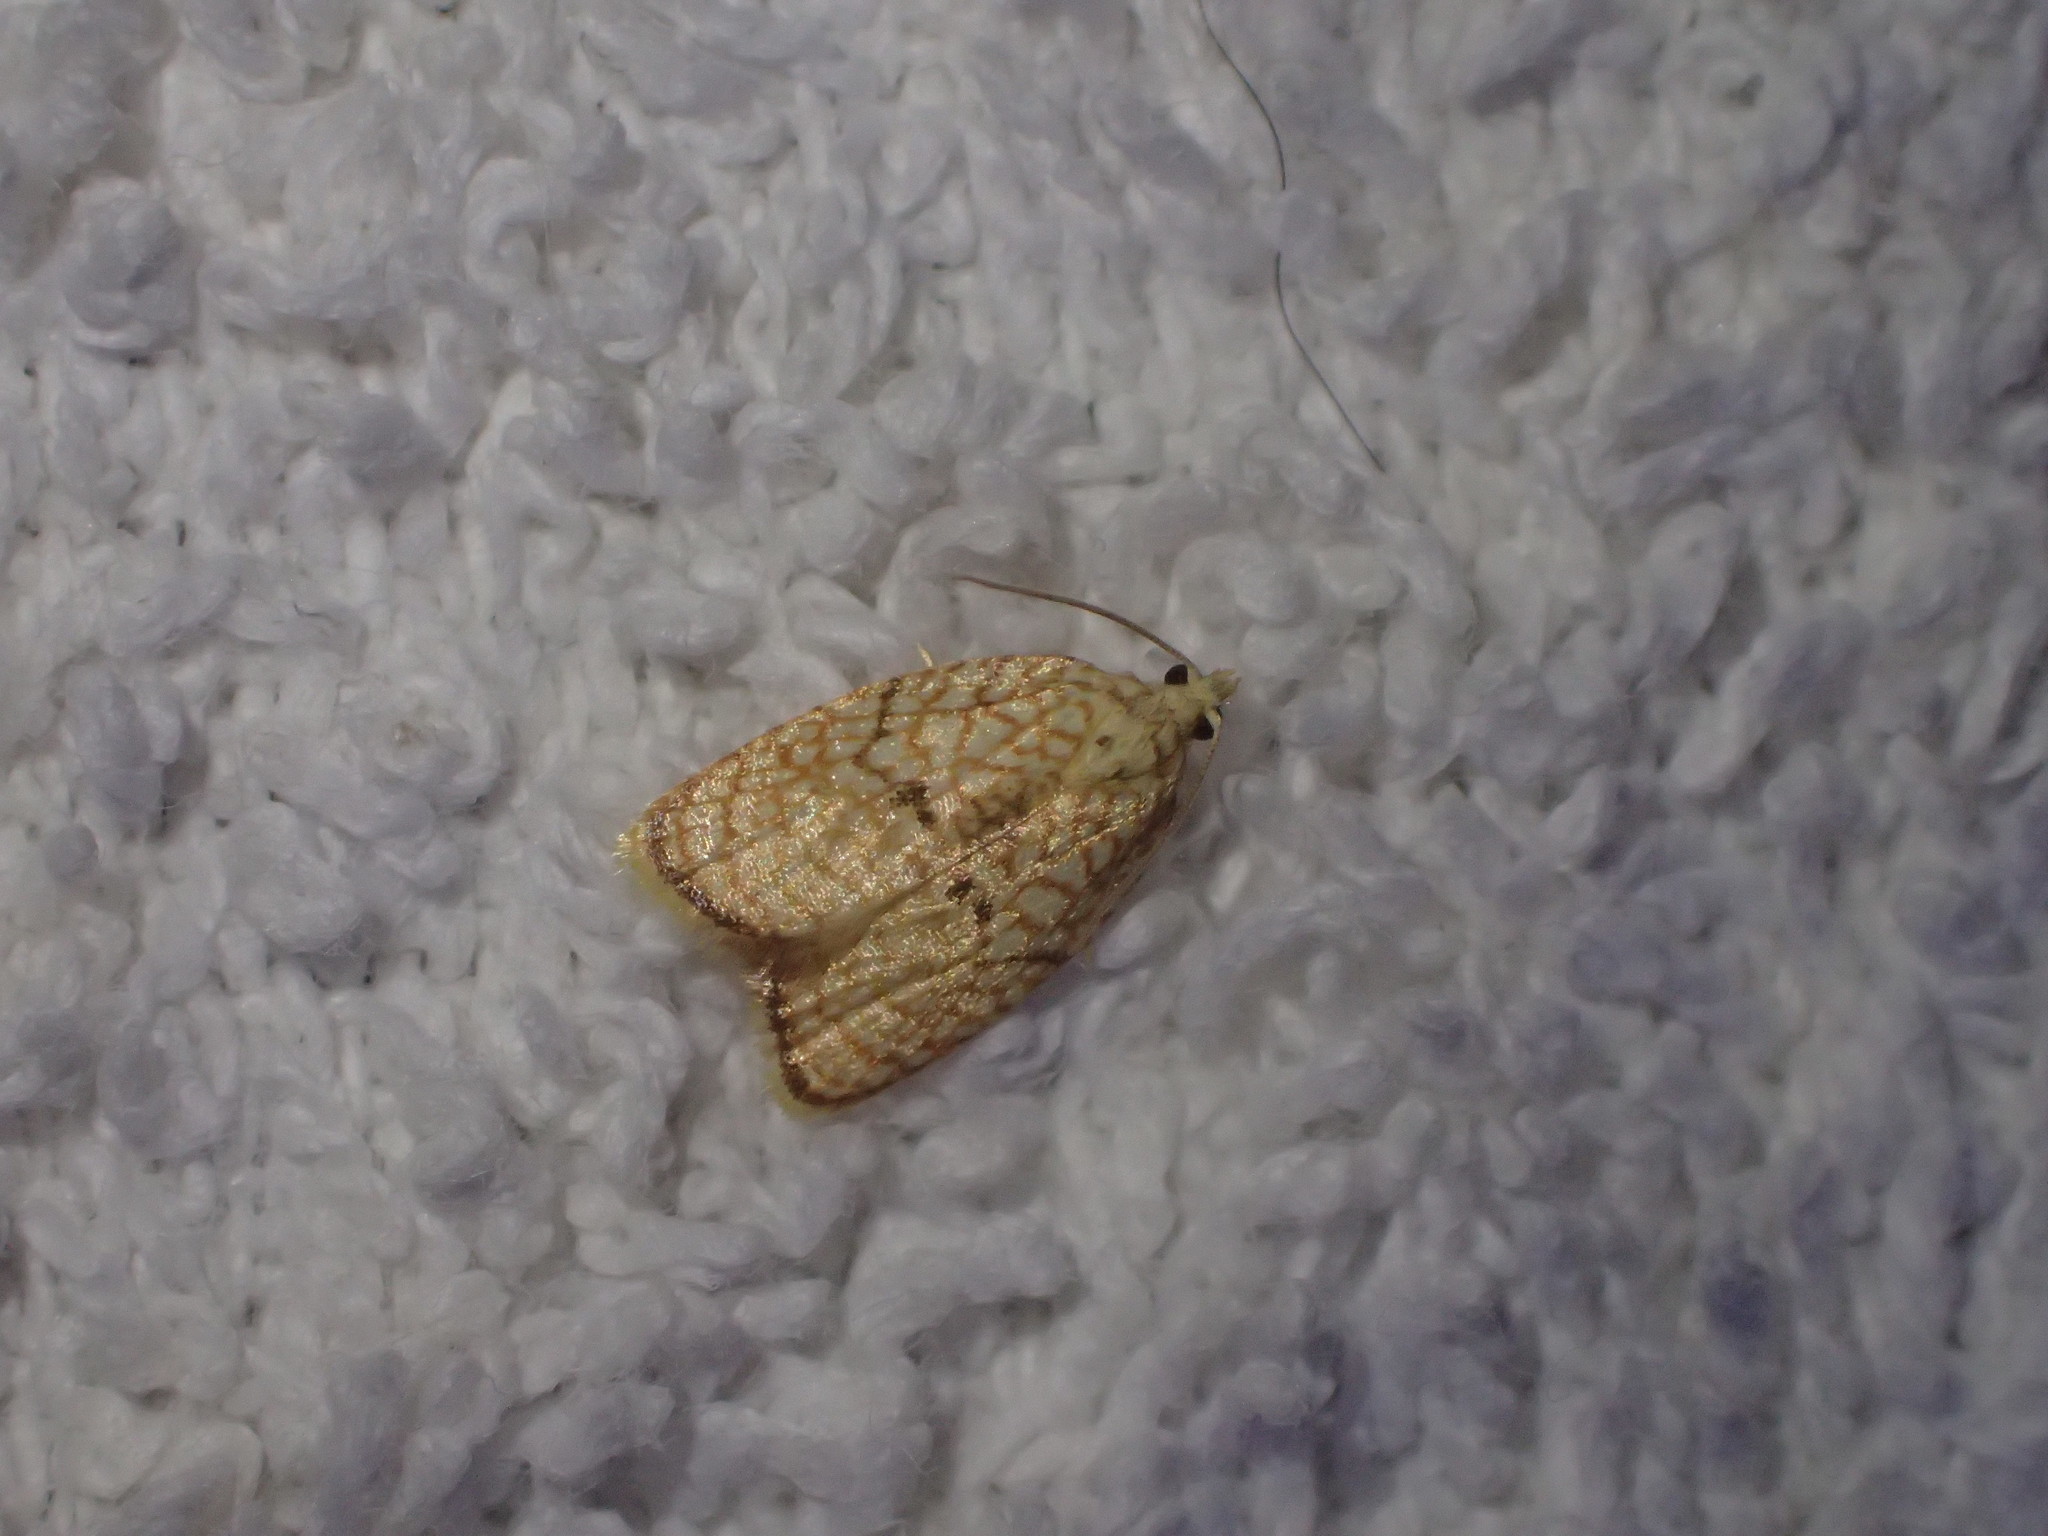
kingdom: Animalia
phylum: Arthropoda
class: Insecta
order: Lepidoptera
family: Tortricidae
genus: Acleris
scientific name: Acleris forsskaleana
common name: Maple button
